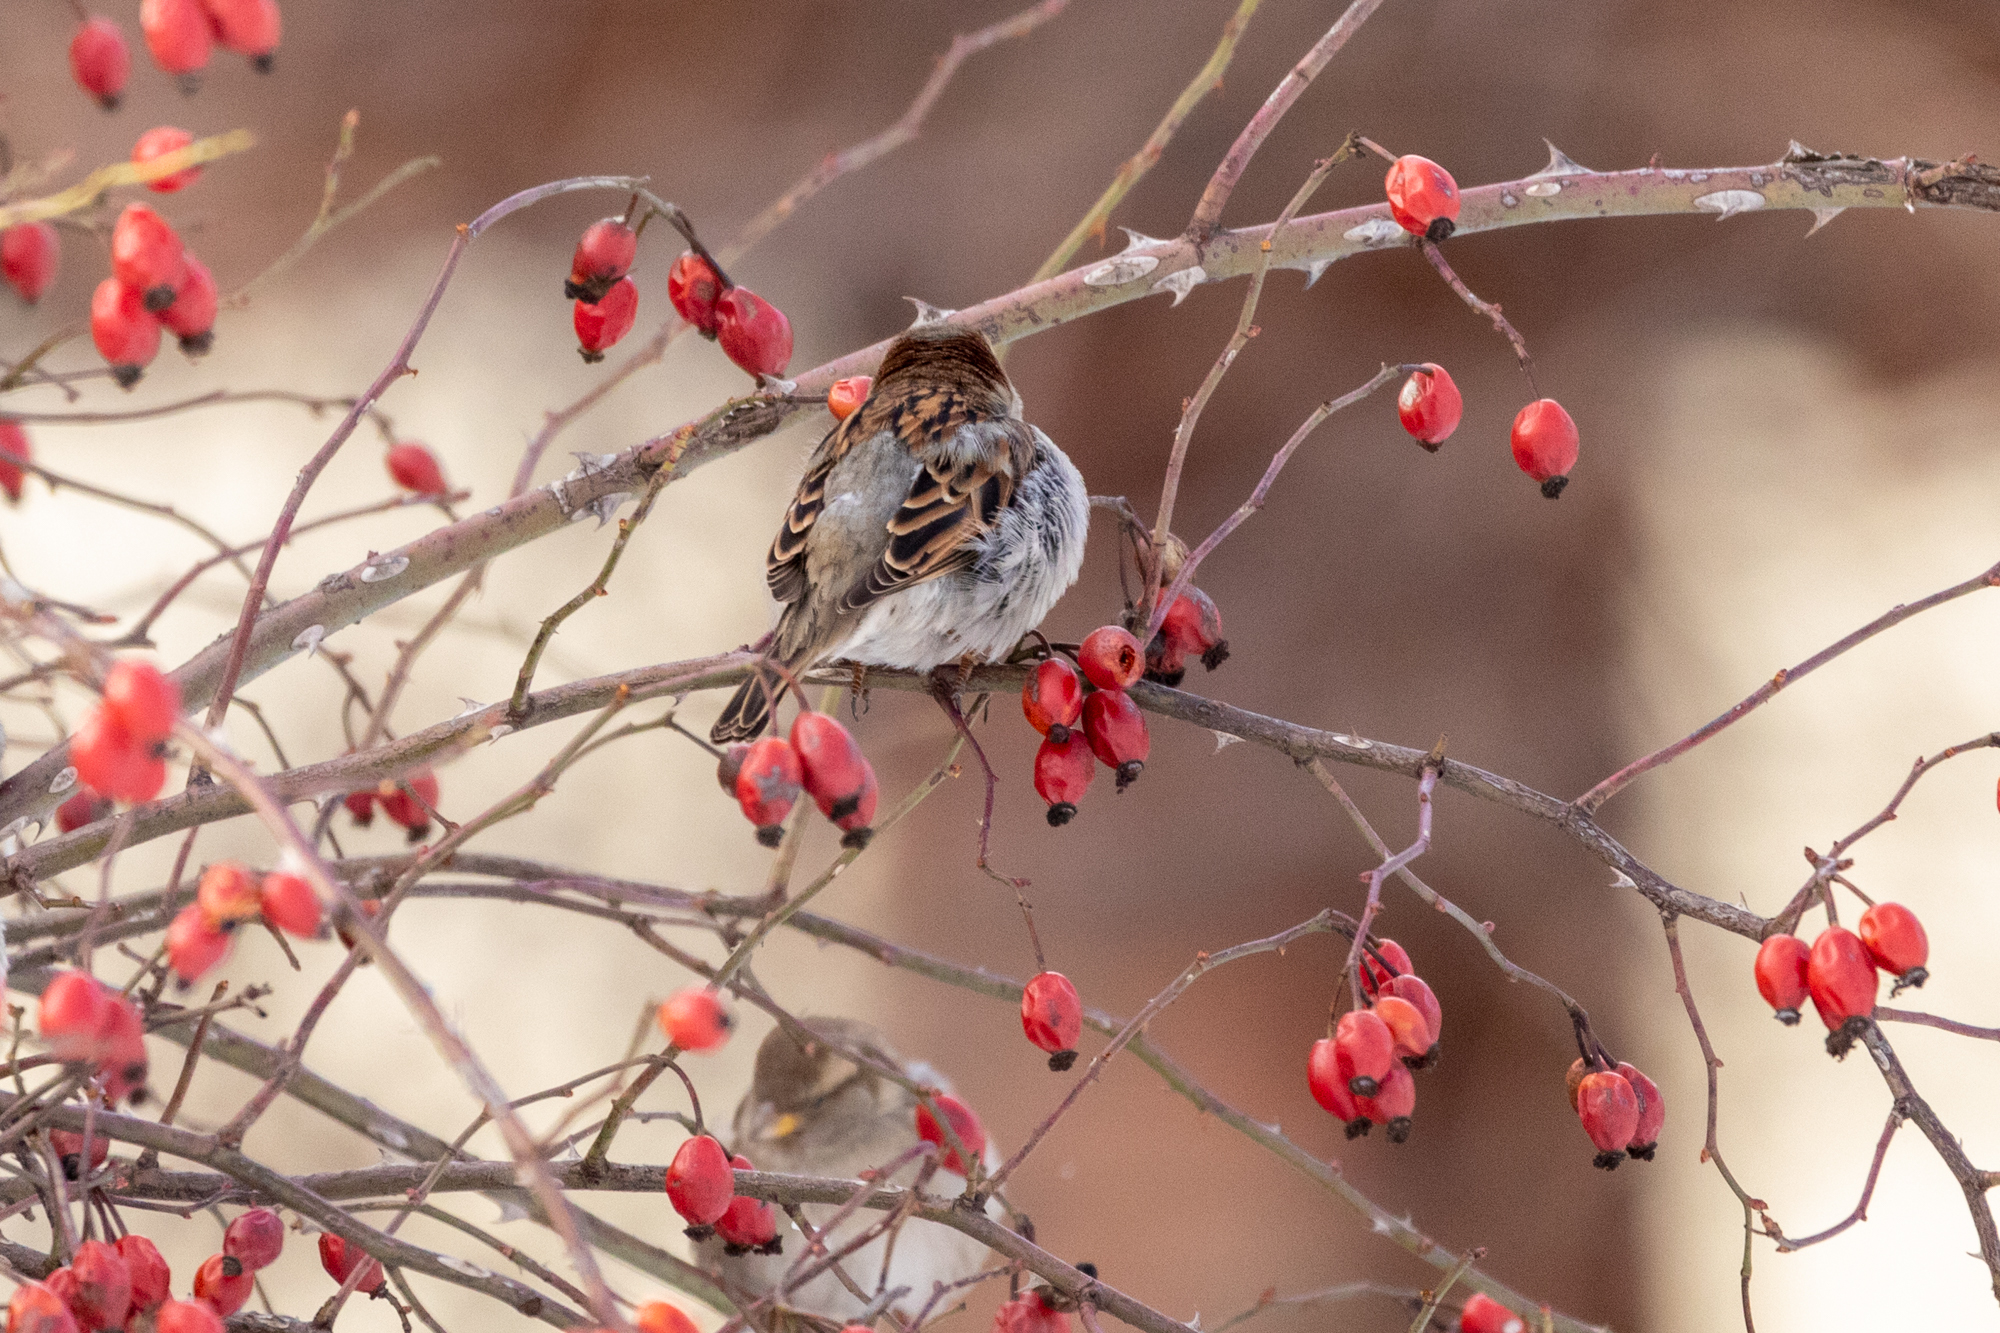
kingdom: Animalia
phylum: Chordata
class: Aves
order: Passeriformes
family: Passeridae
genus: Passer
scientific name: Passer domesticus
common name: House sparrow
